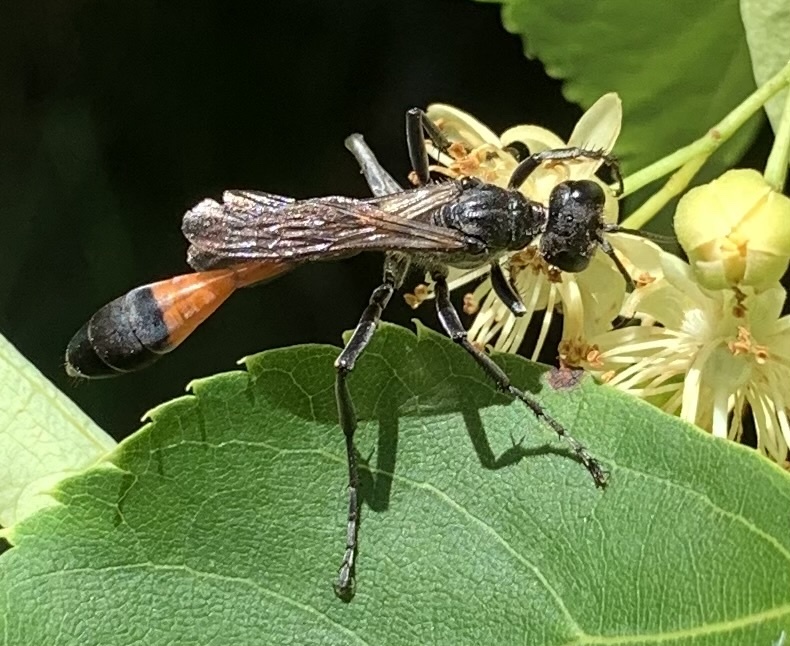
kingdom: Animalia
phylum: Arthropoda
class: Insecta
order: Hymenoptera
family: Sphecidae
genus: Ammophila
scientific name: Ammophila sabulosa
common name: Red banded sand wasp
